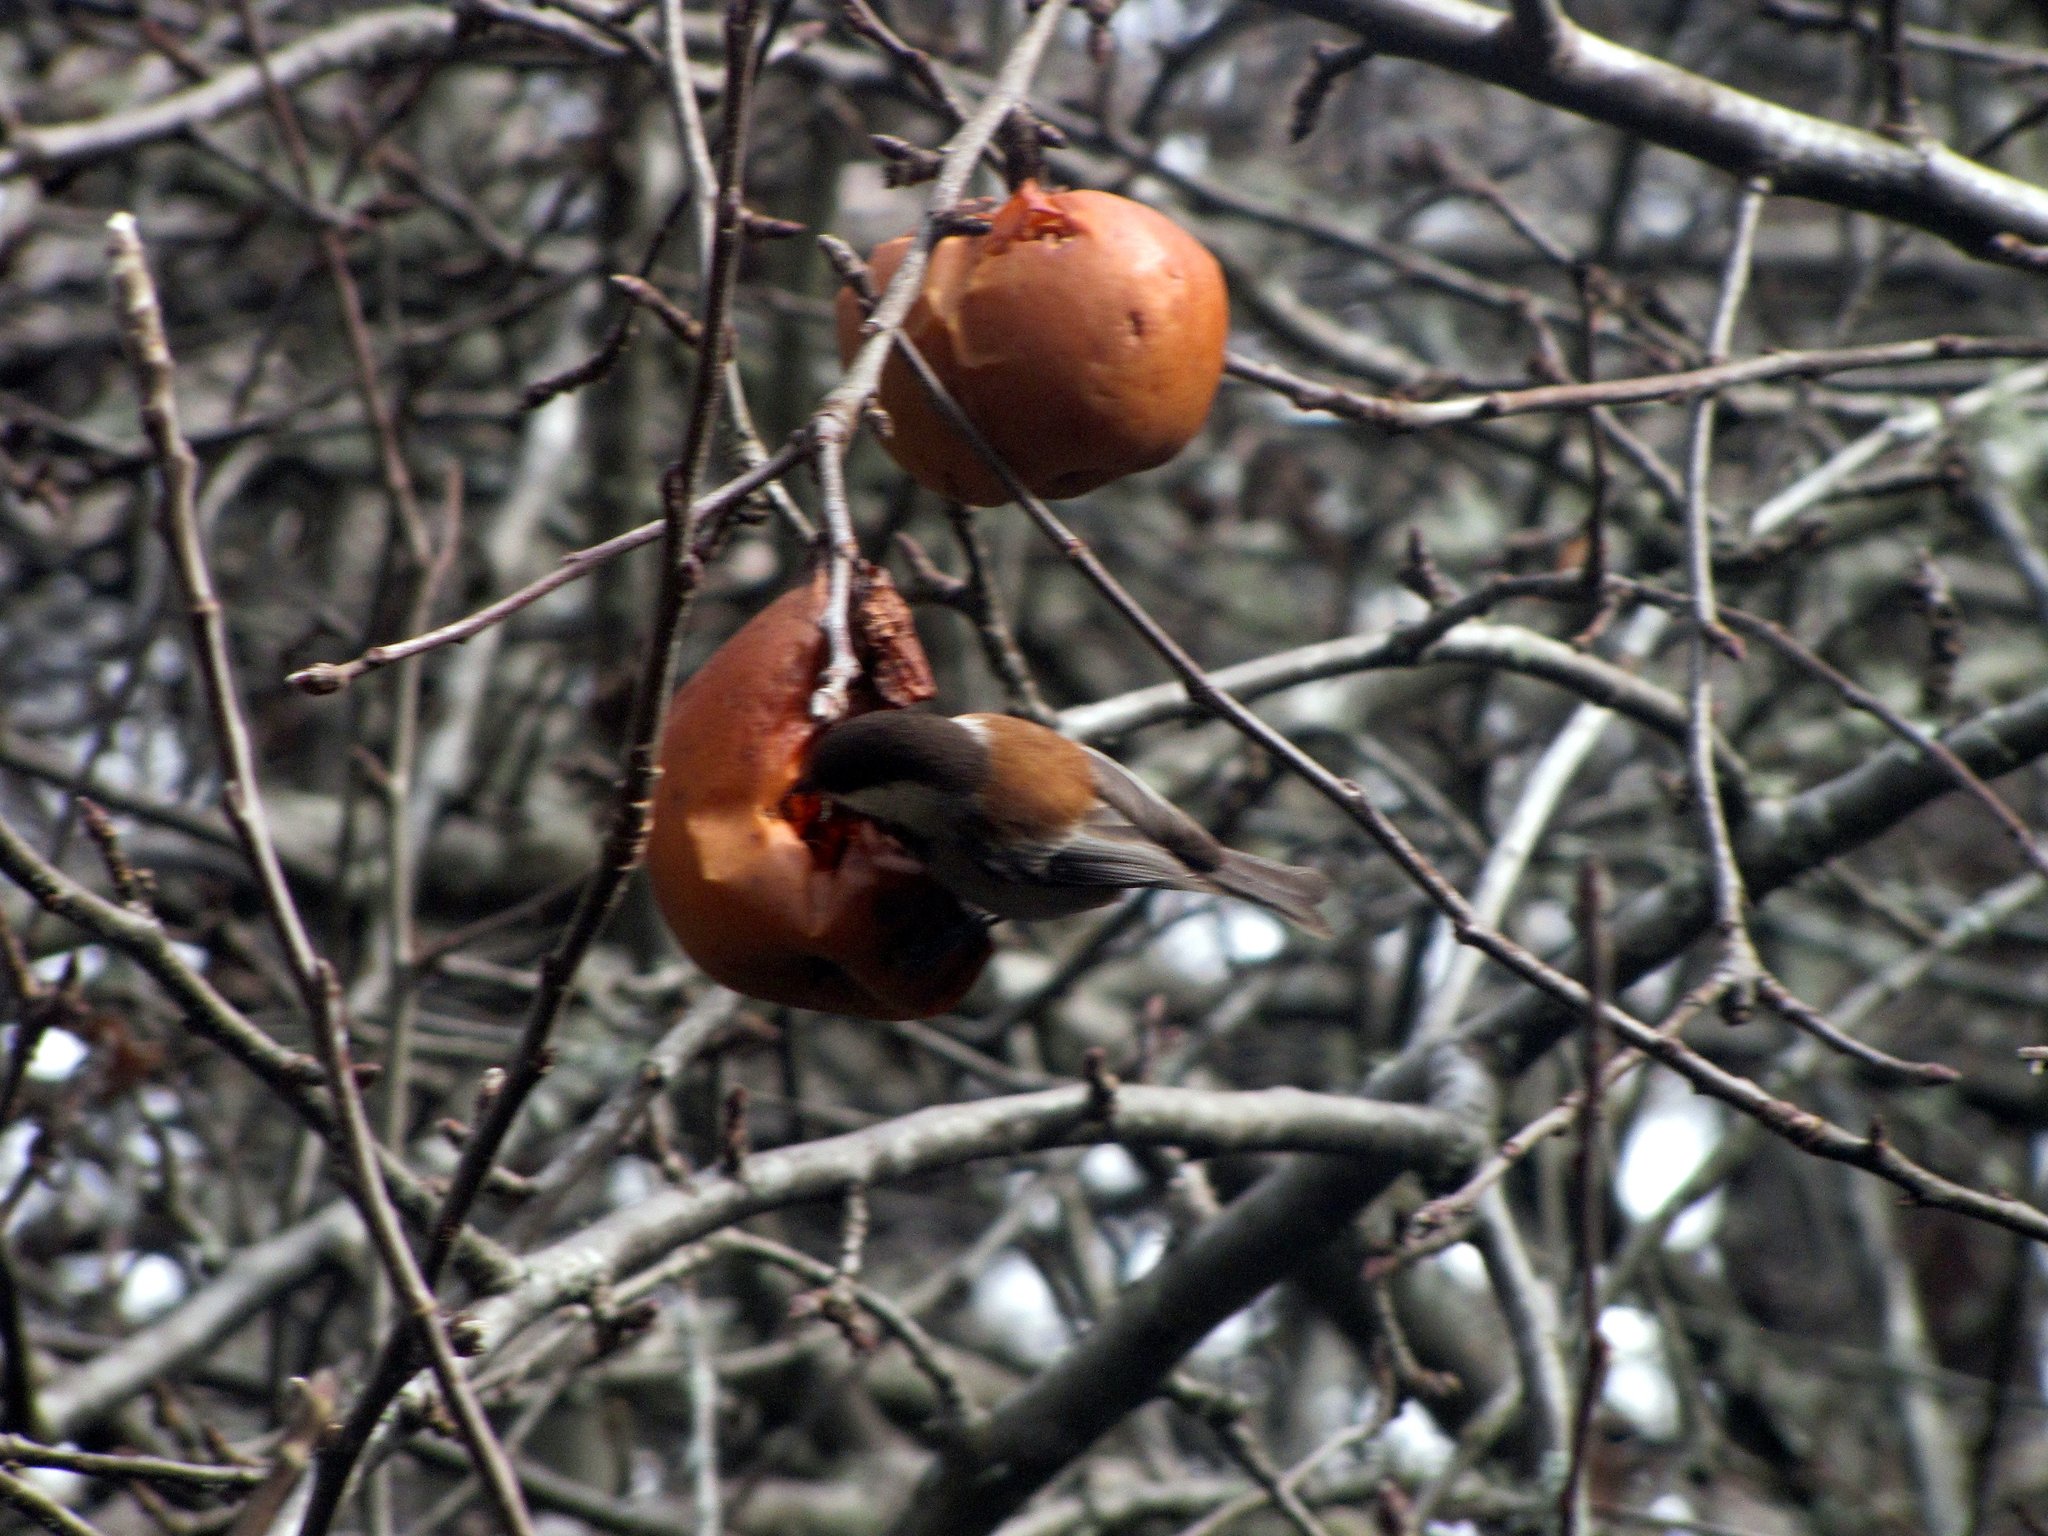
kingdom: Animalia
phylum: Chordata
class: Aves
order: Passeriformes
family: Paridae
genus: Poecile
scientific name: Poecile rufescens
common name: Chestnut-backed chickadee
